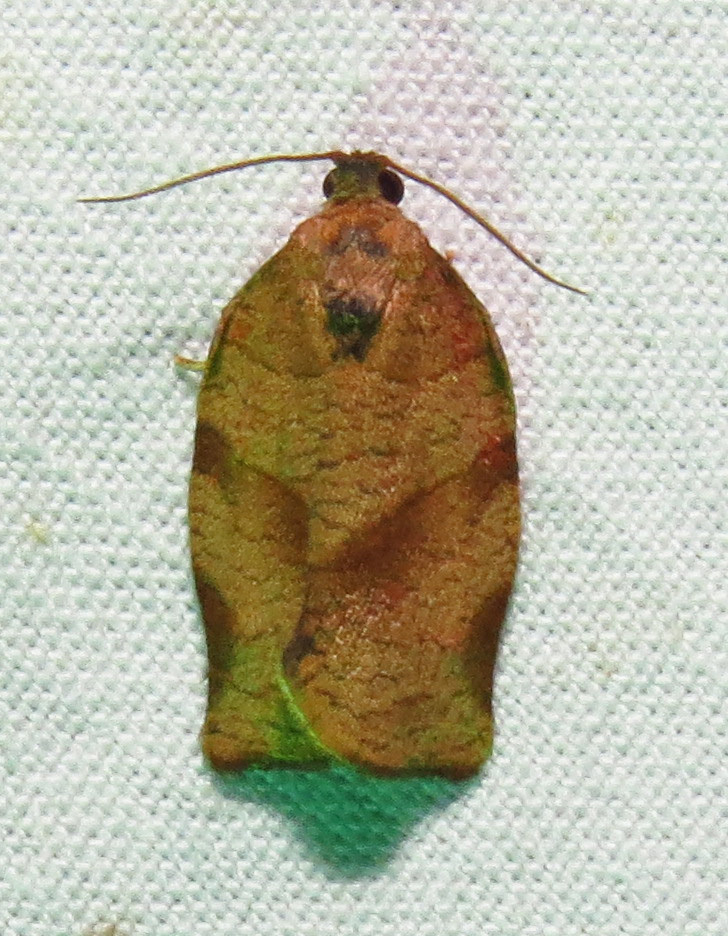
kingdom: Animalia
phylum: Arthropoda
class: Insecta
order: Lepidoptera
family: Tortricidae
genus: Choristoneura
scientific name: Choristoneura rosaceana
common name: Oblique-banded leafroller moth
